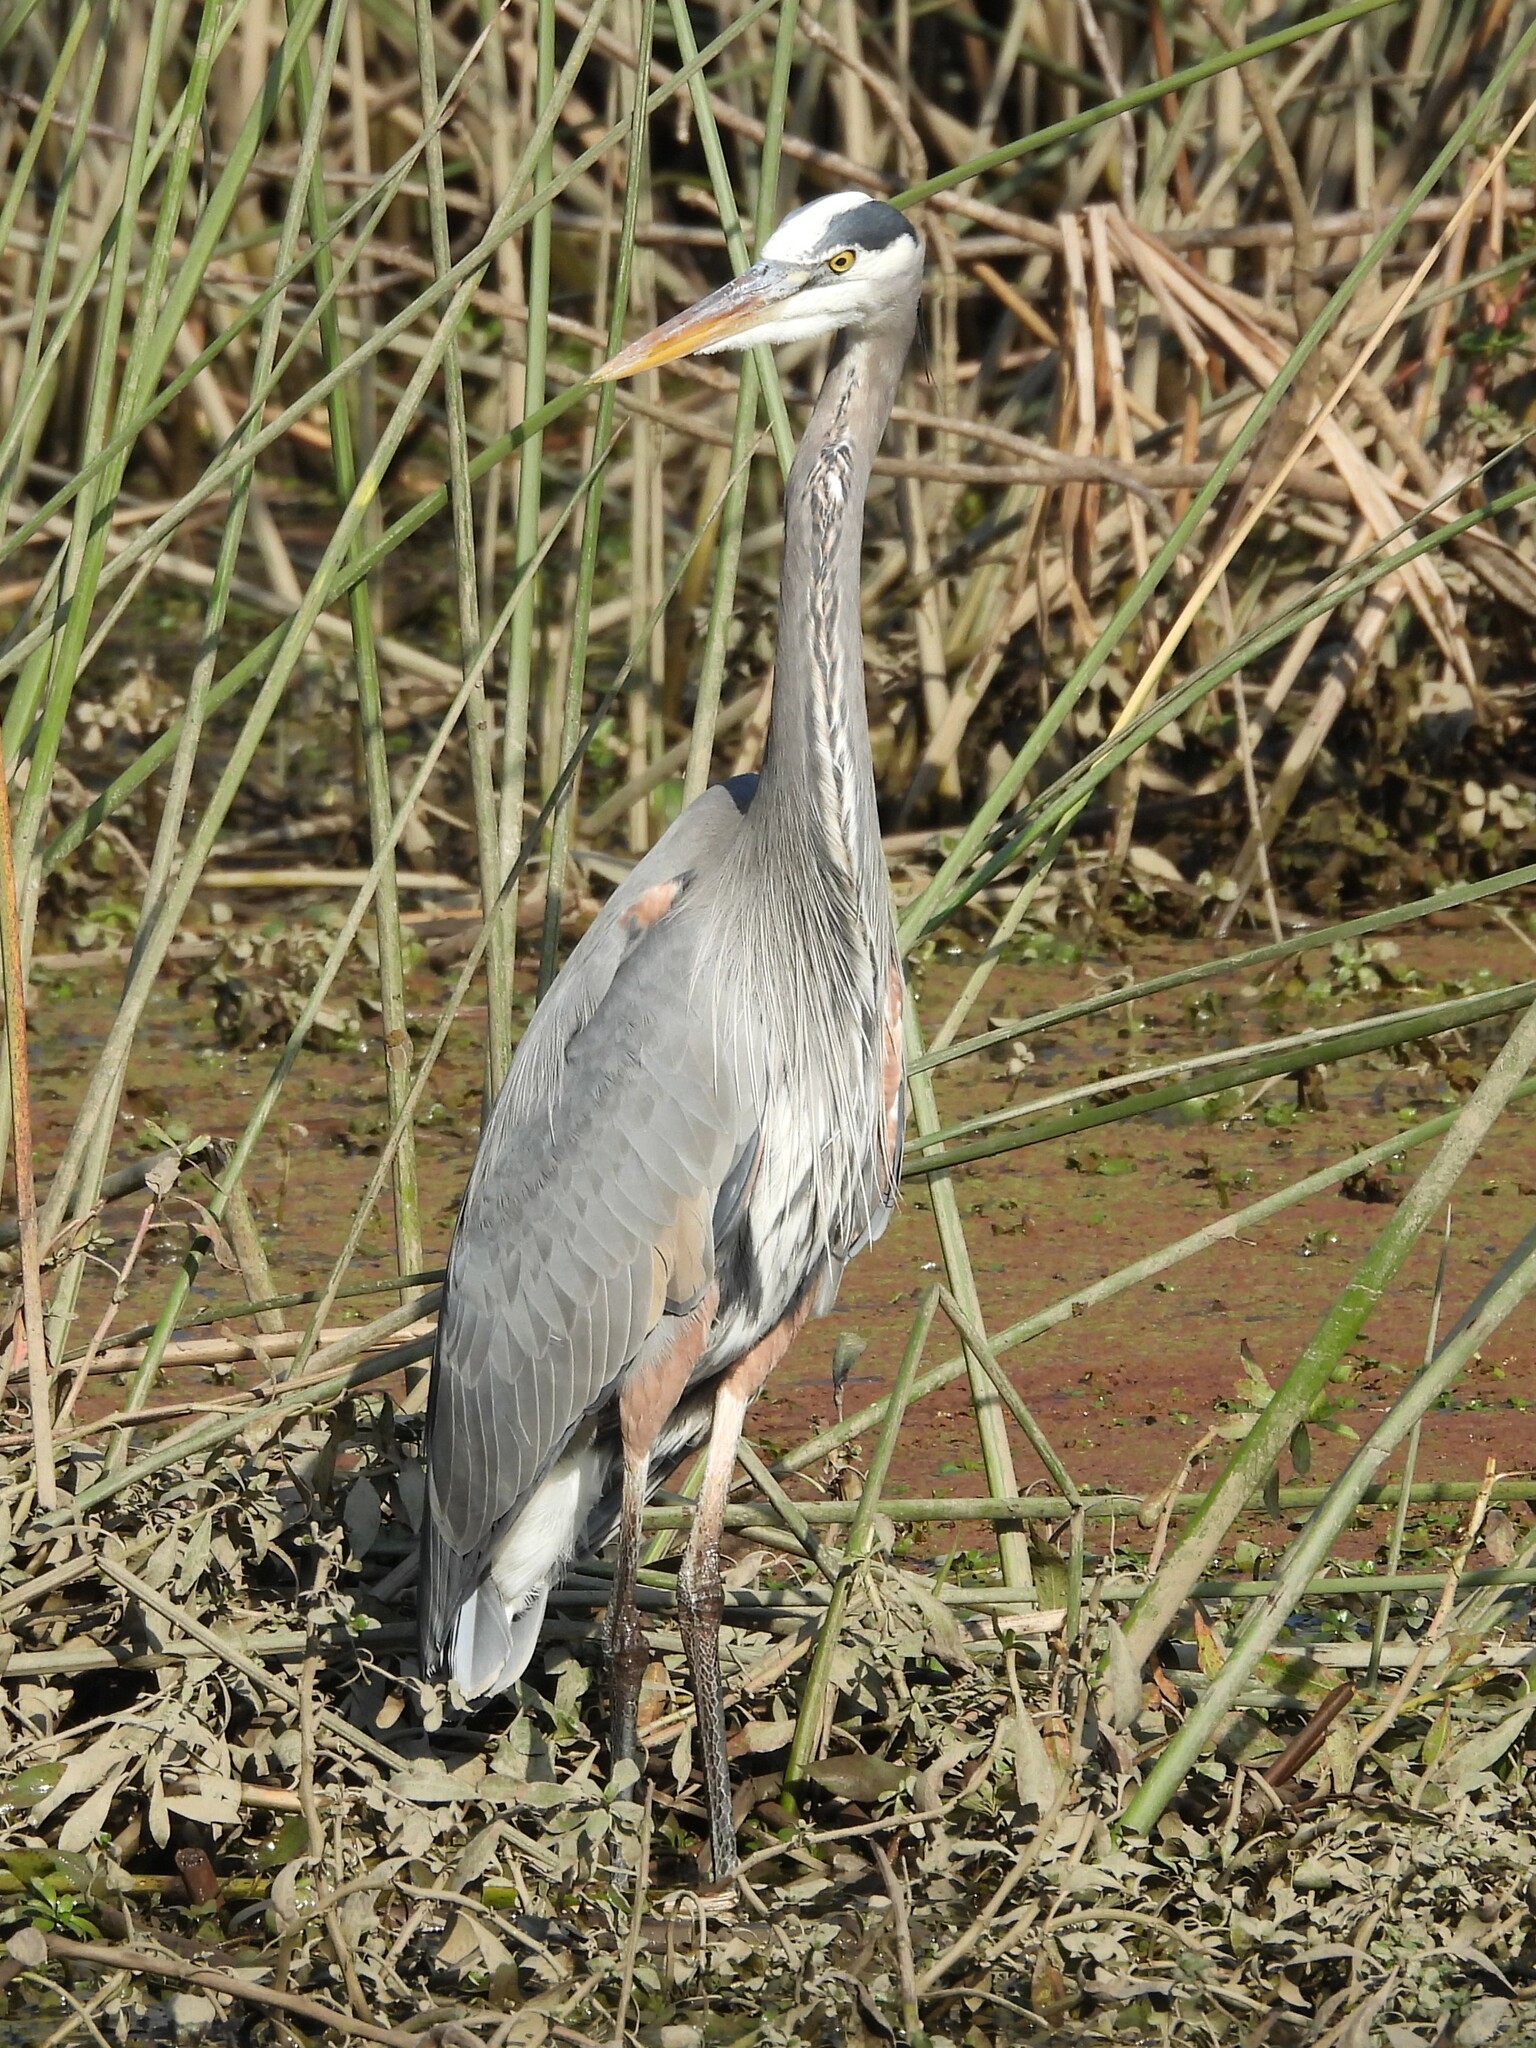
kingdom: Animalia
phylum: Chordata
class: Aves
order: Pelecaniformes
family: Ardeidae
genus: Ardea
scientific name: Ardea herodias
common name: Great blue heron
